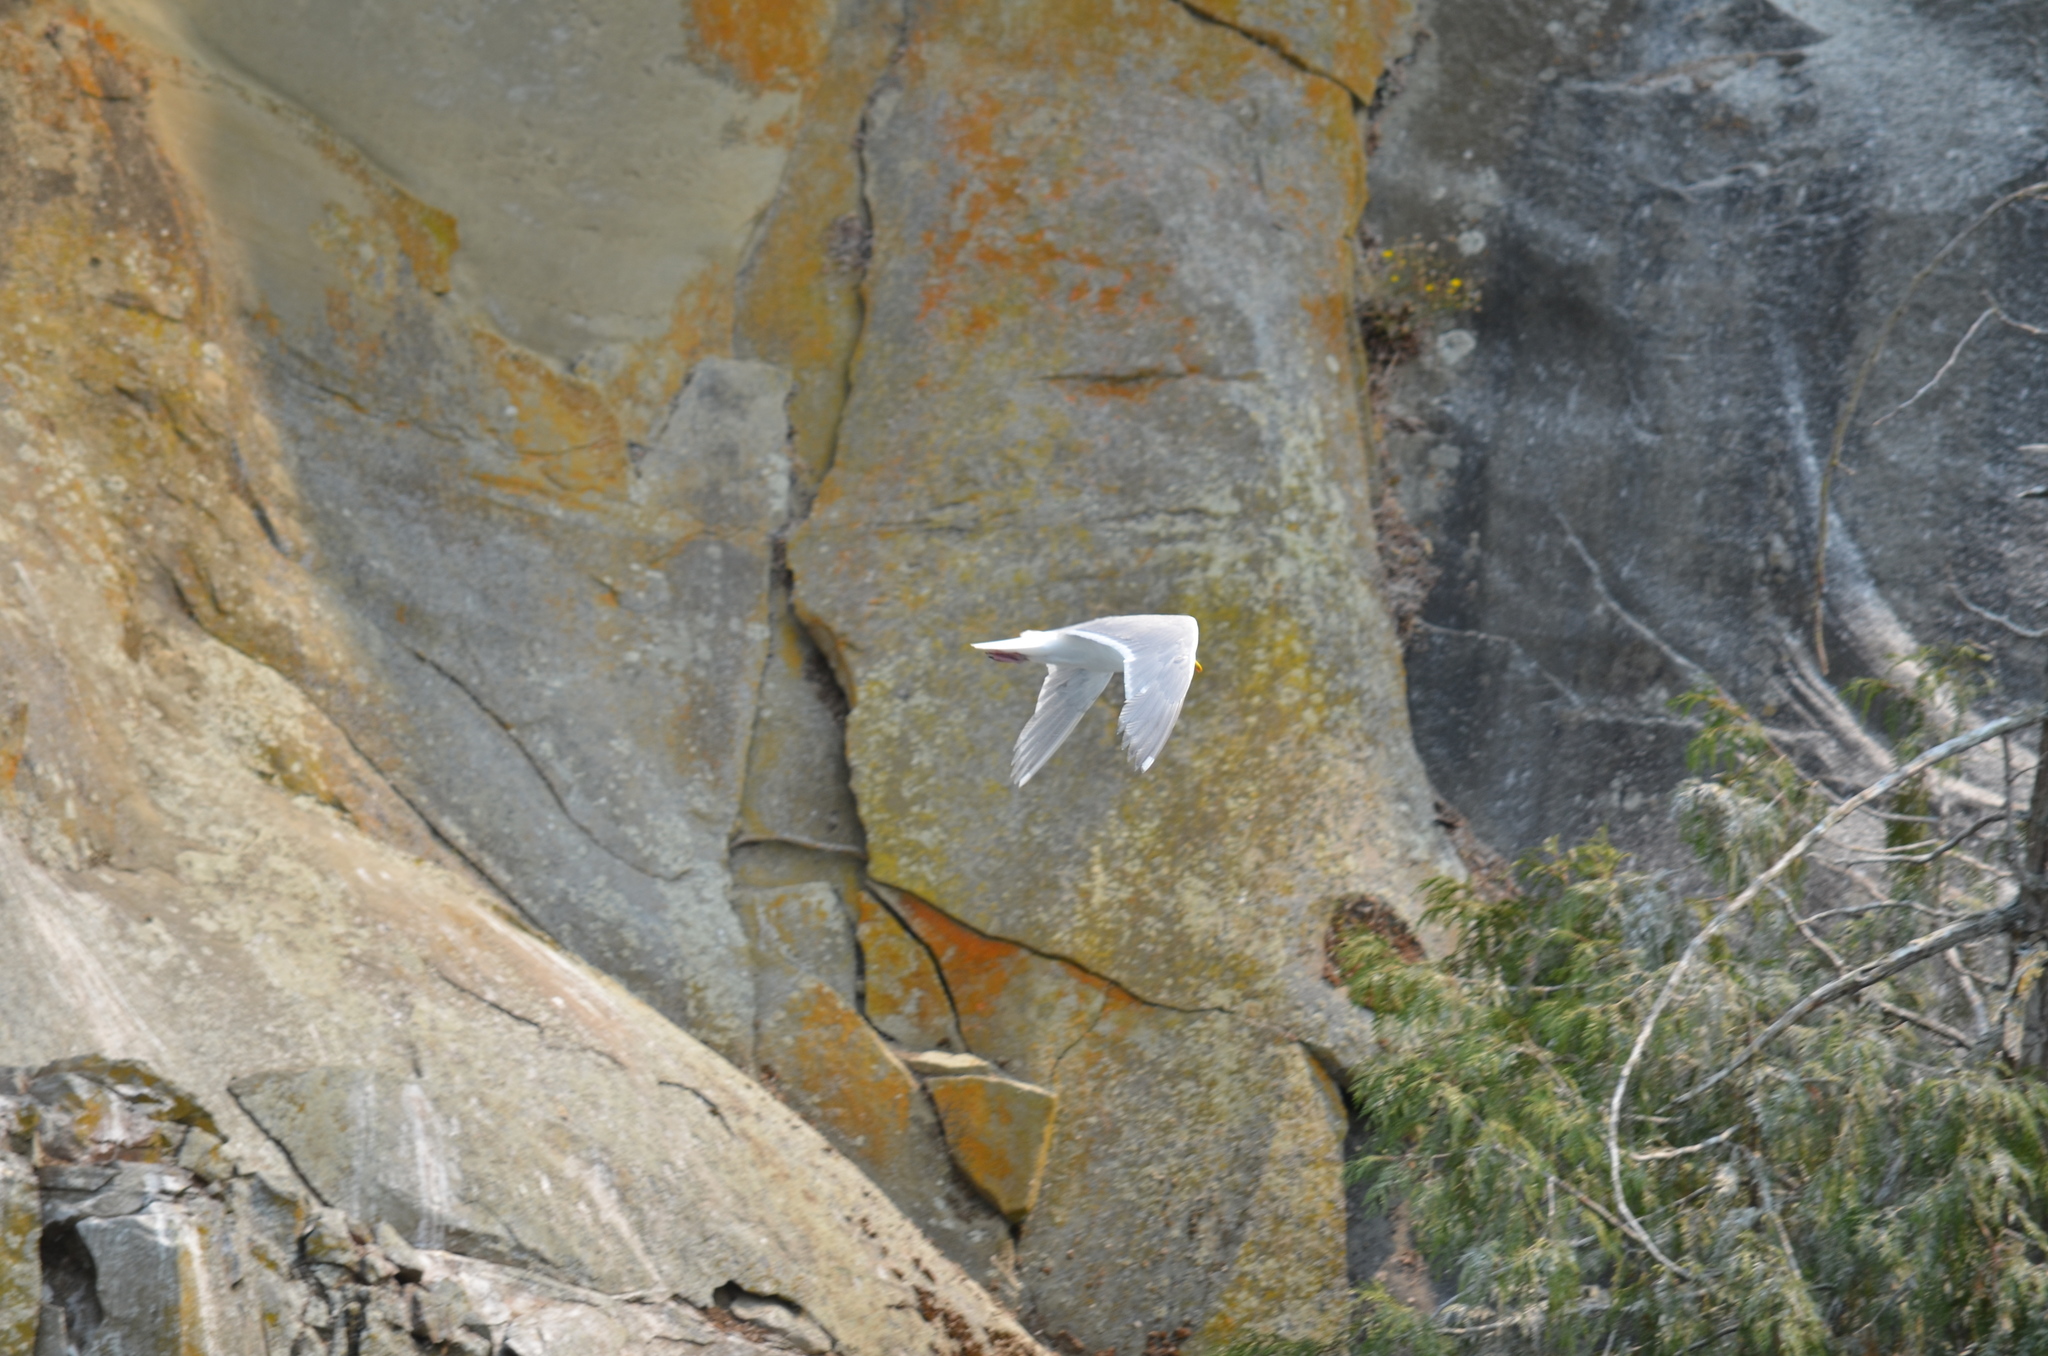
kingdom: Animalia
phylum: Chordata
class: Aves
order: Charadriiformes
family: Laridae
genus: Larus
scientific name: Larus glaucescens
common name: Glaucous-winged gull
